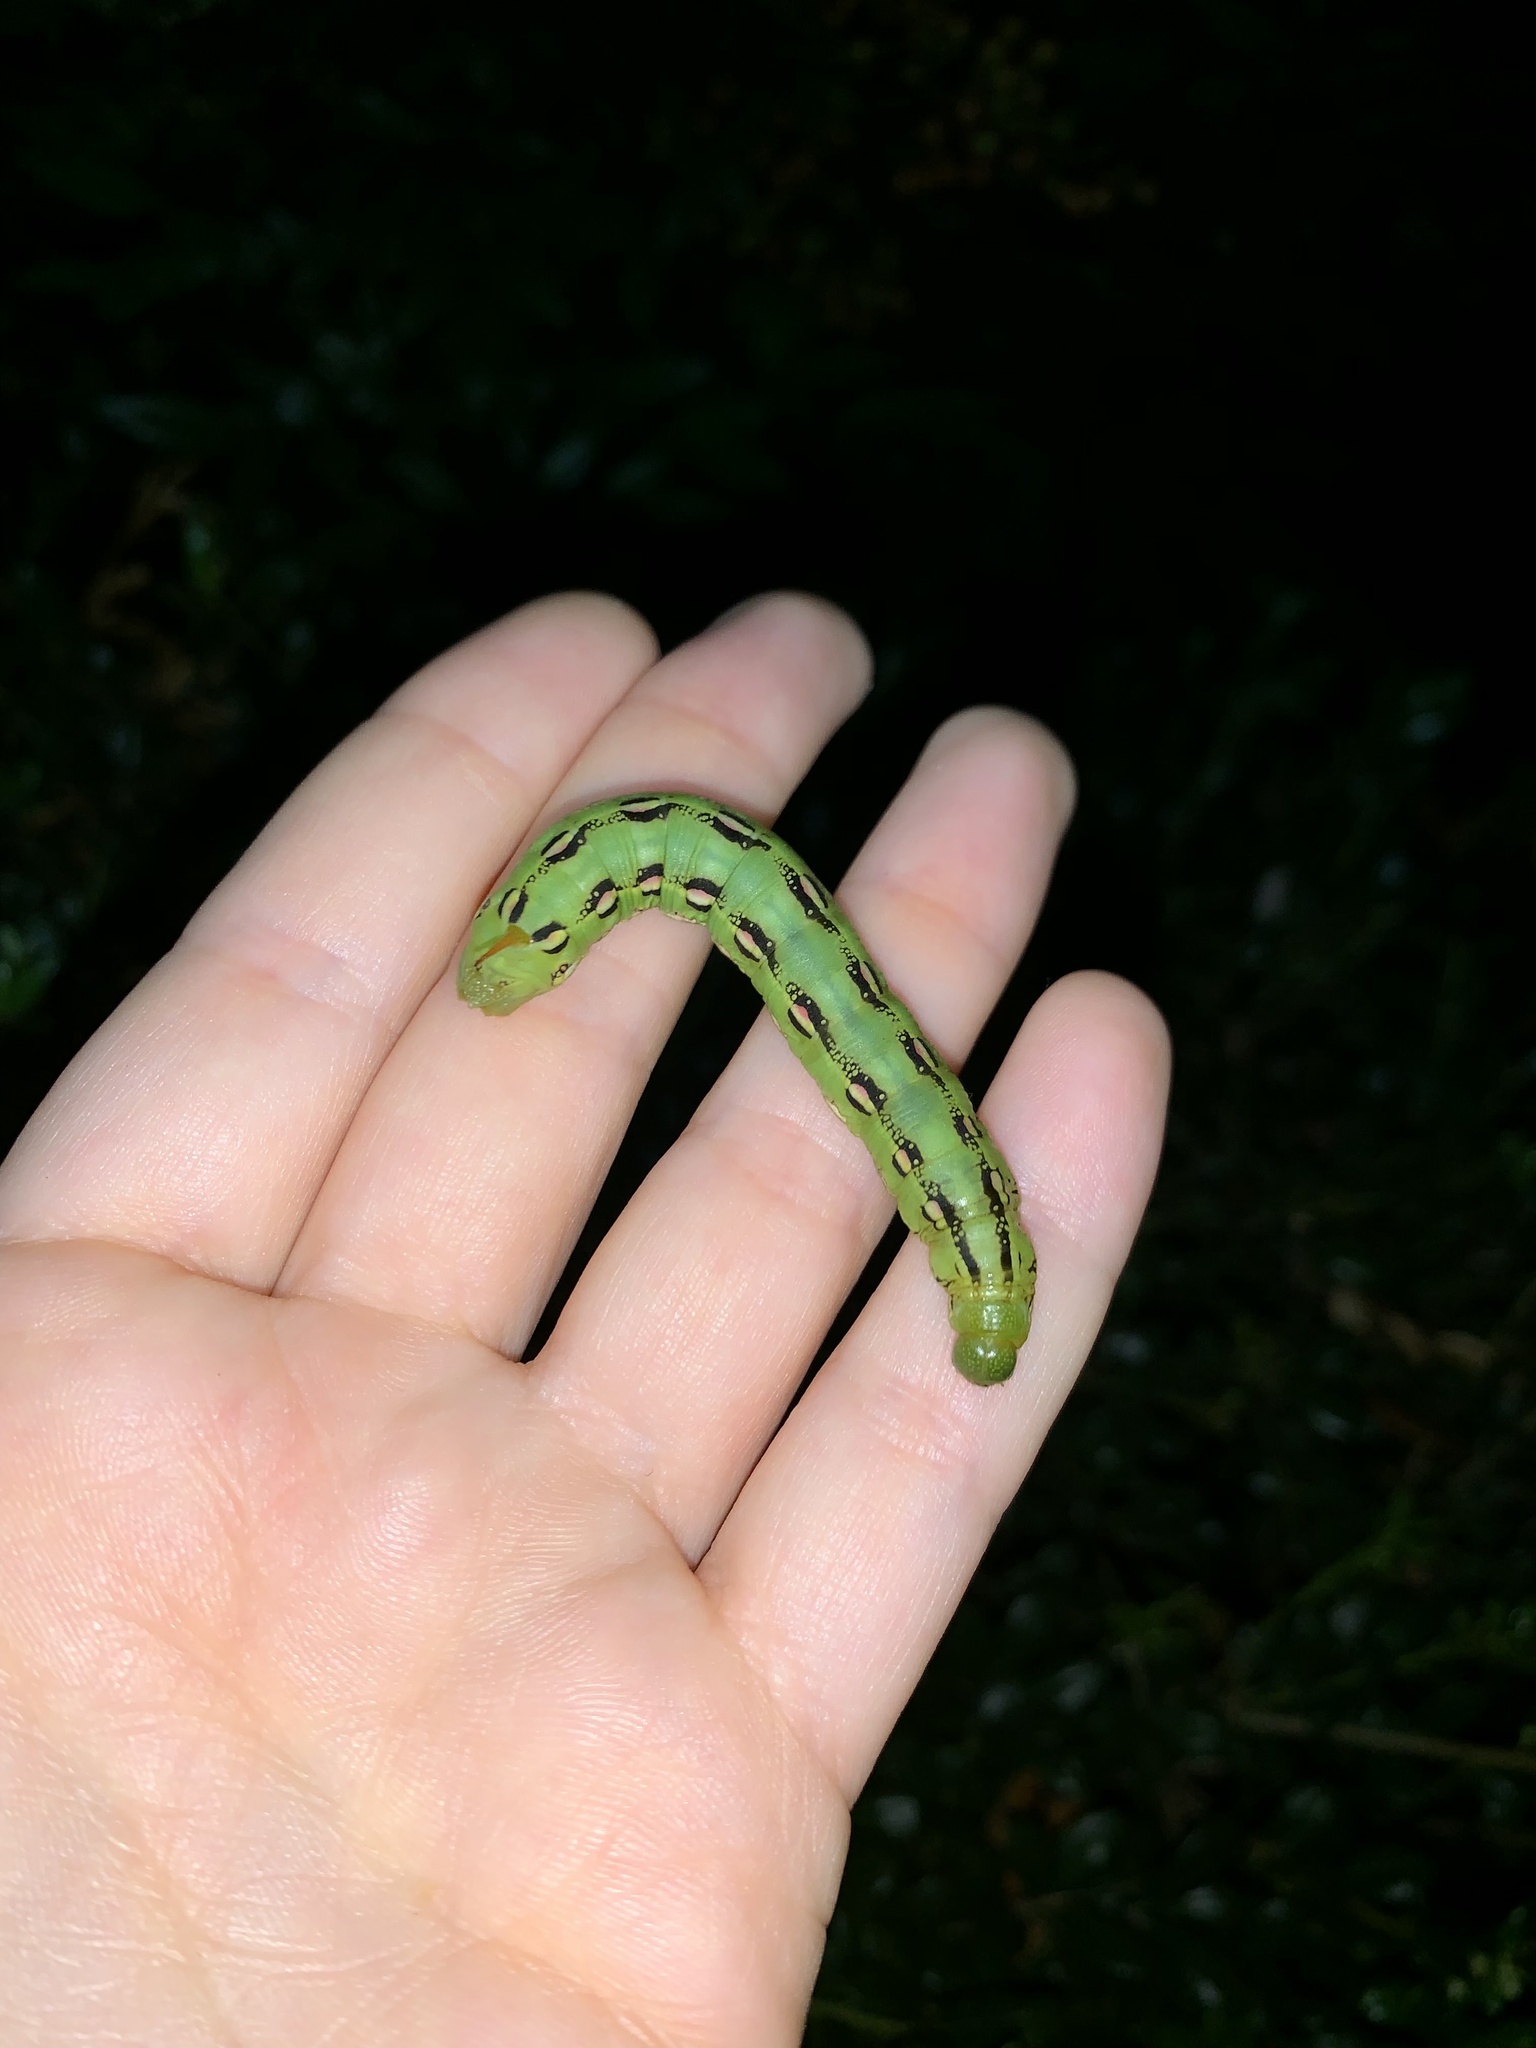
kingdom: Animalia
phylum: Arthropoda
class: Insecta
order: Lepidoptera
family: Sphingidae
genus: Hyles
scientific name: Hyles lineata
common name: White-lined sphinx
